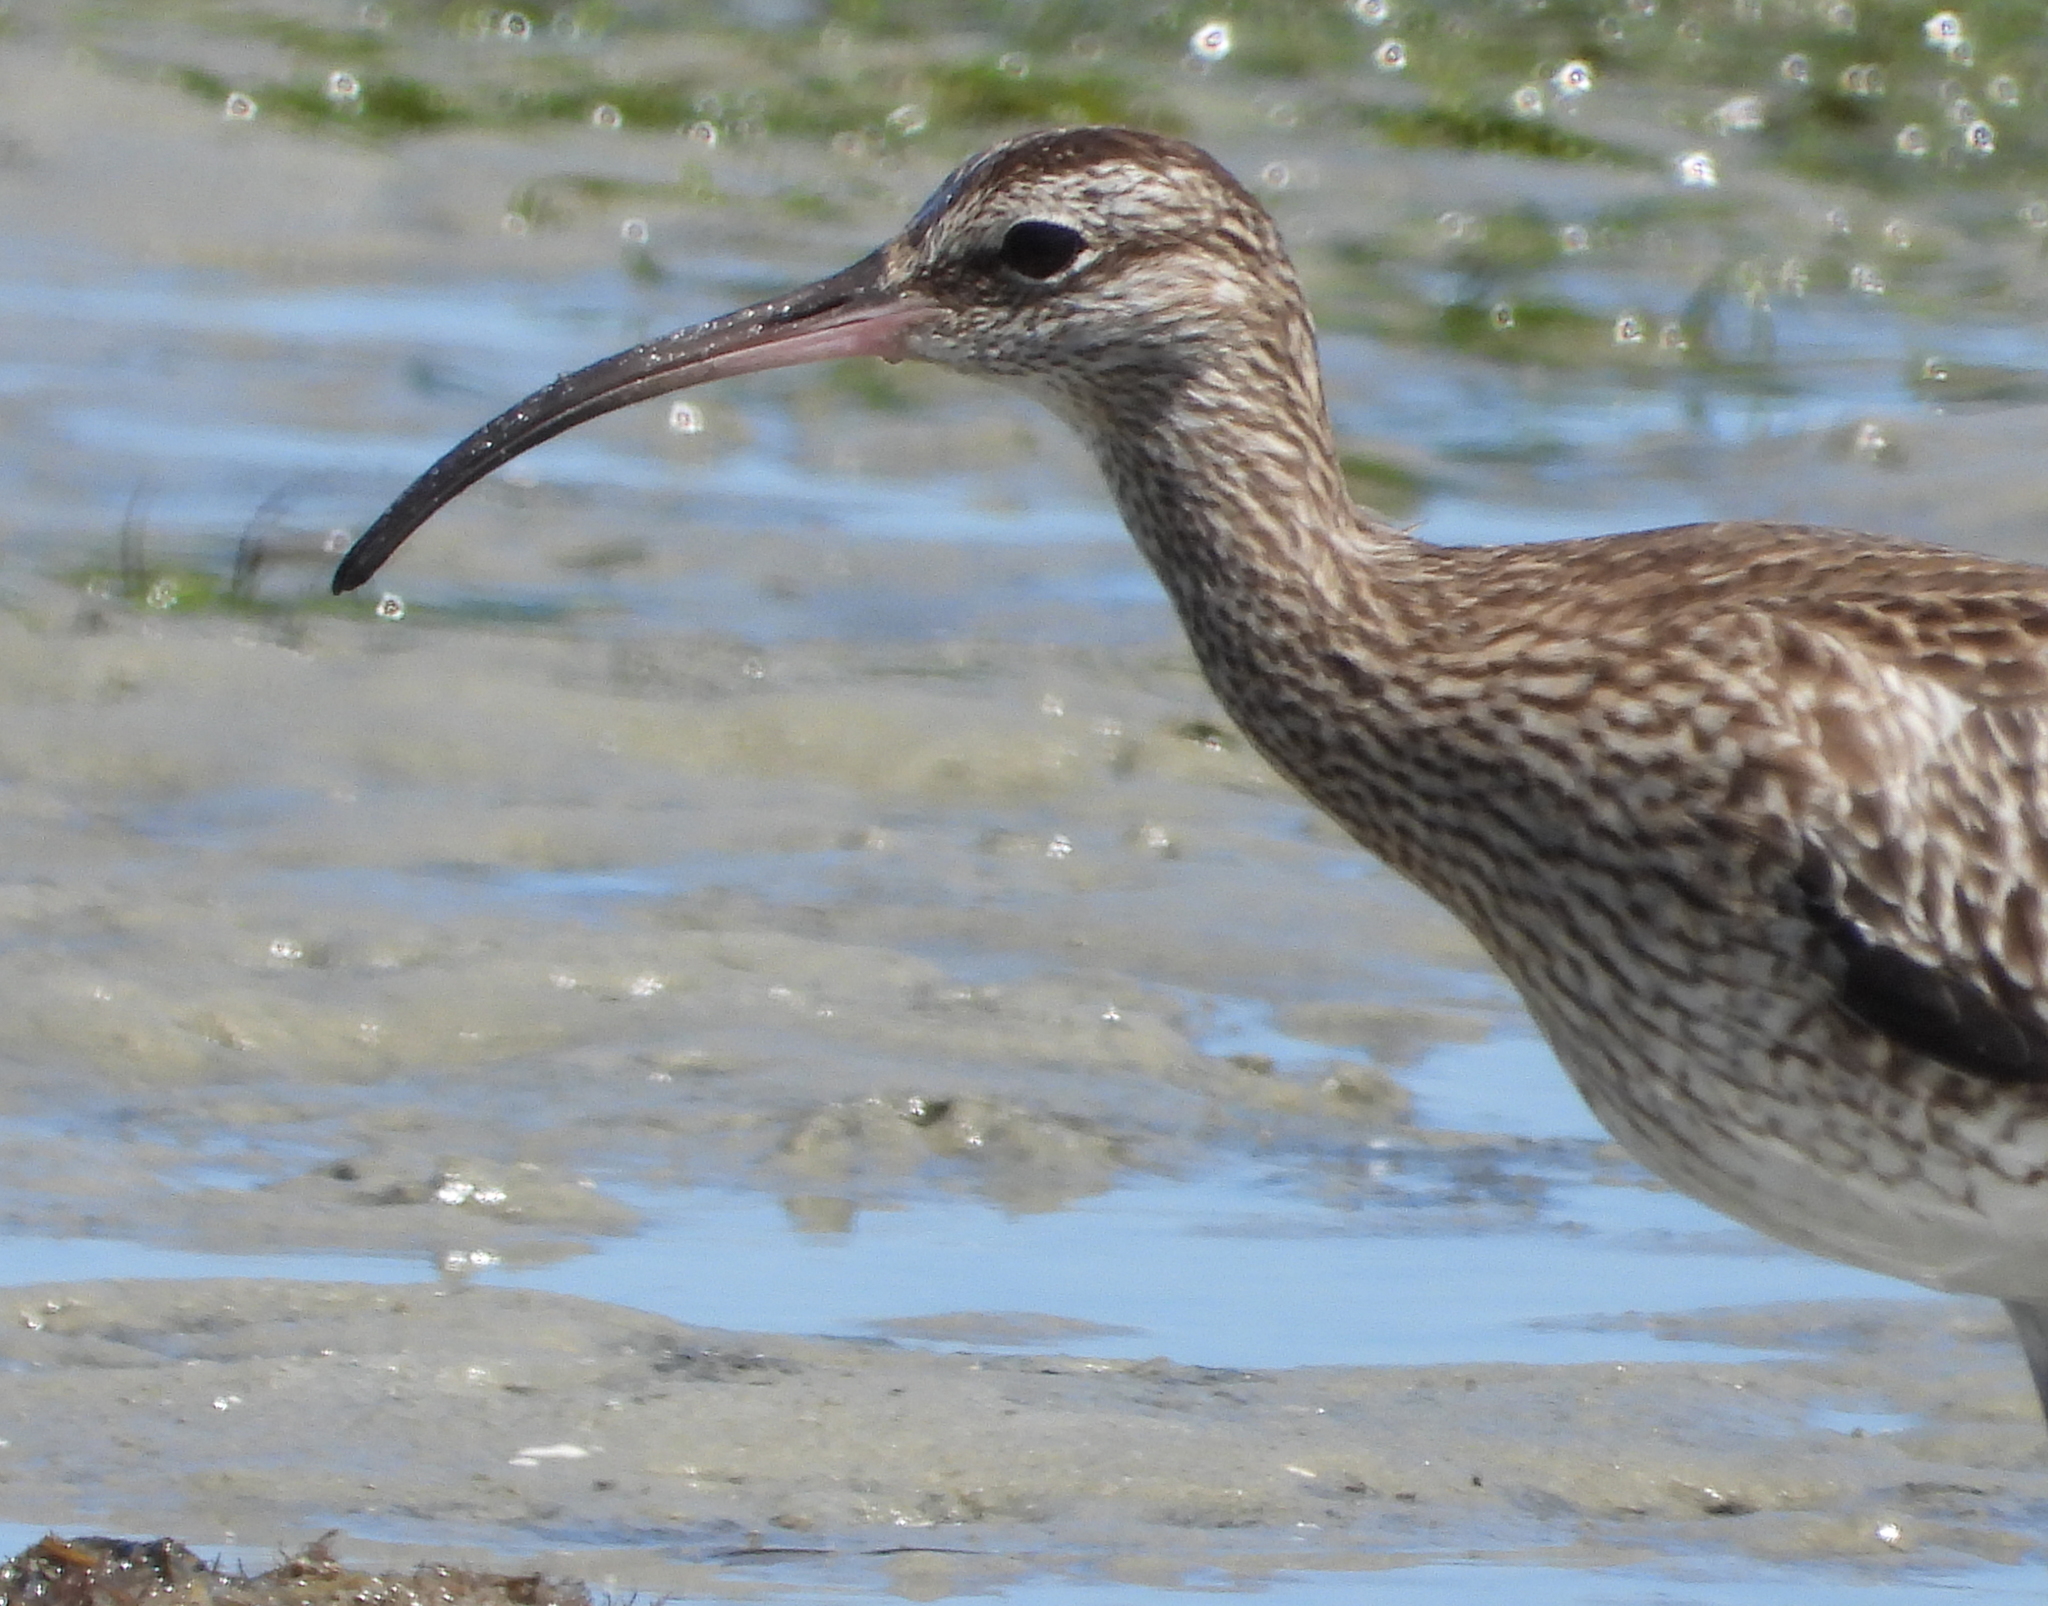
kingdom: Animalia
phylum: Chordata
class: Aves
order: Charadriiformes
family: Scolopacidae
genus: Numenius
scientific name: Numenius phaeopus
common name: Whimbrel
